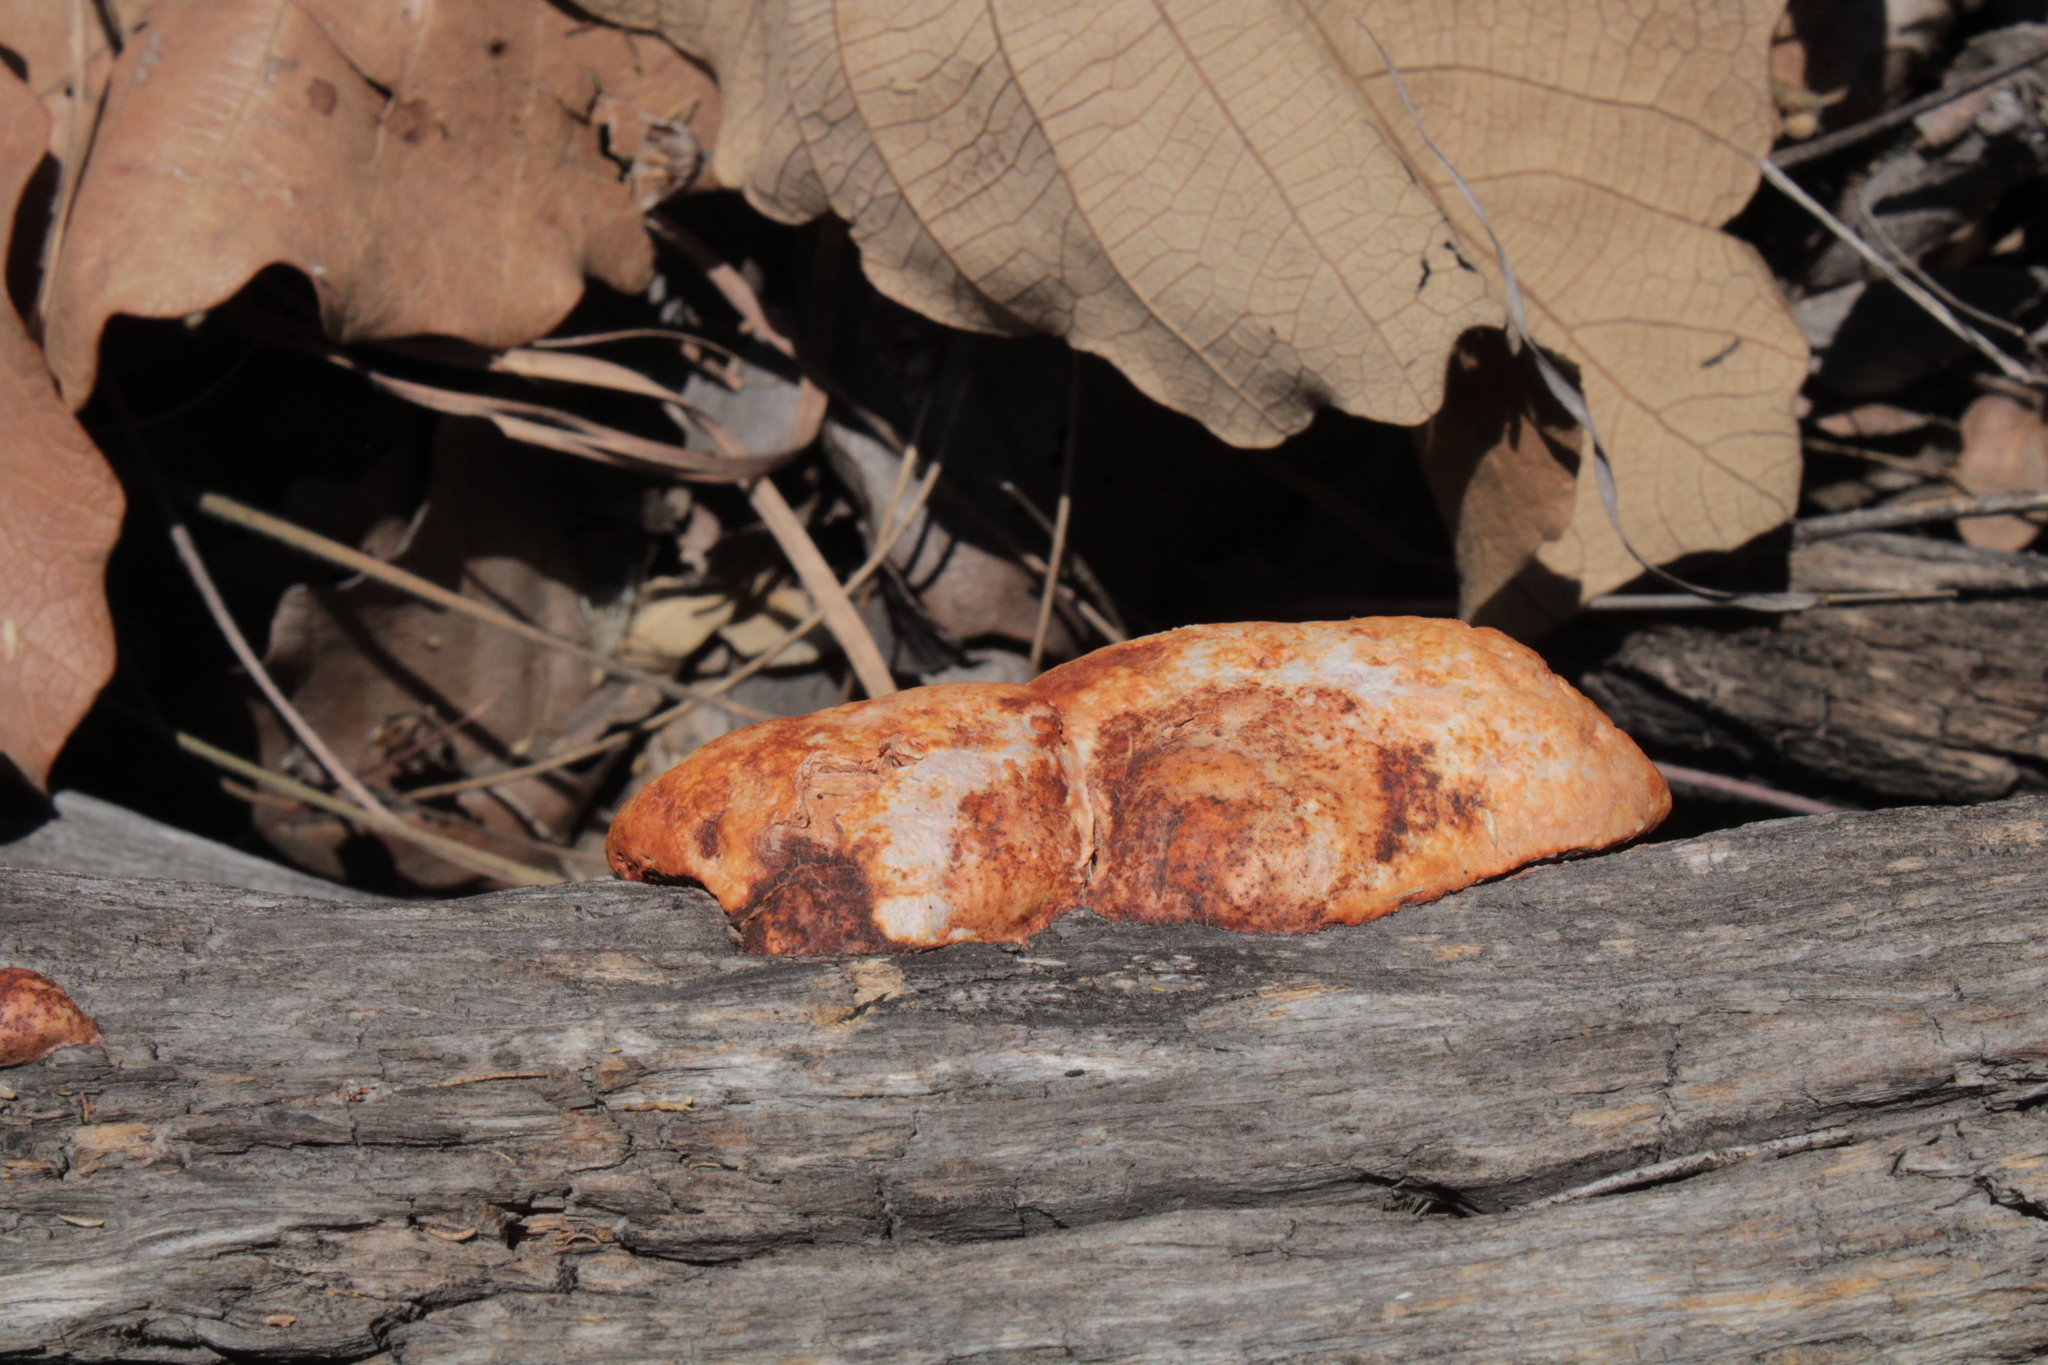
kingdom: Fungi
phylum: Basidiomycota
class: Agaricomycetes
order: Polyporales
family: Polyporaceae
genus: Trametes
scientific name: Trametes cinnabarina
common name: Northern cinnabar polypore
